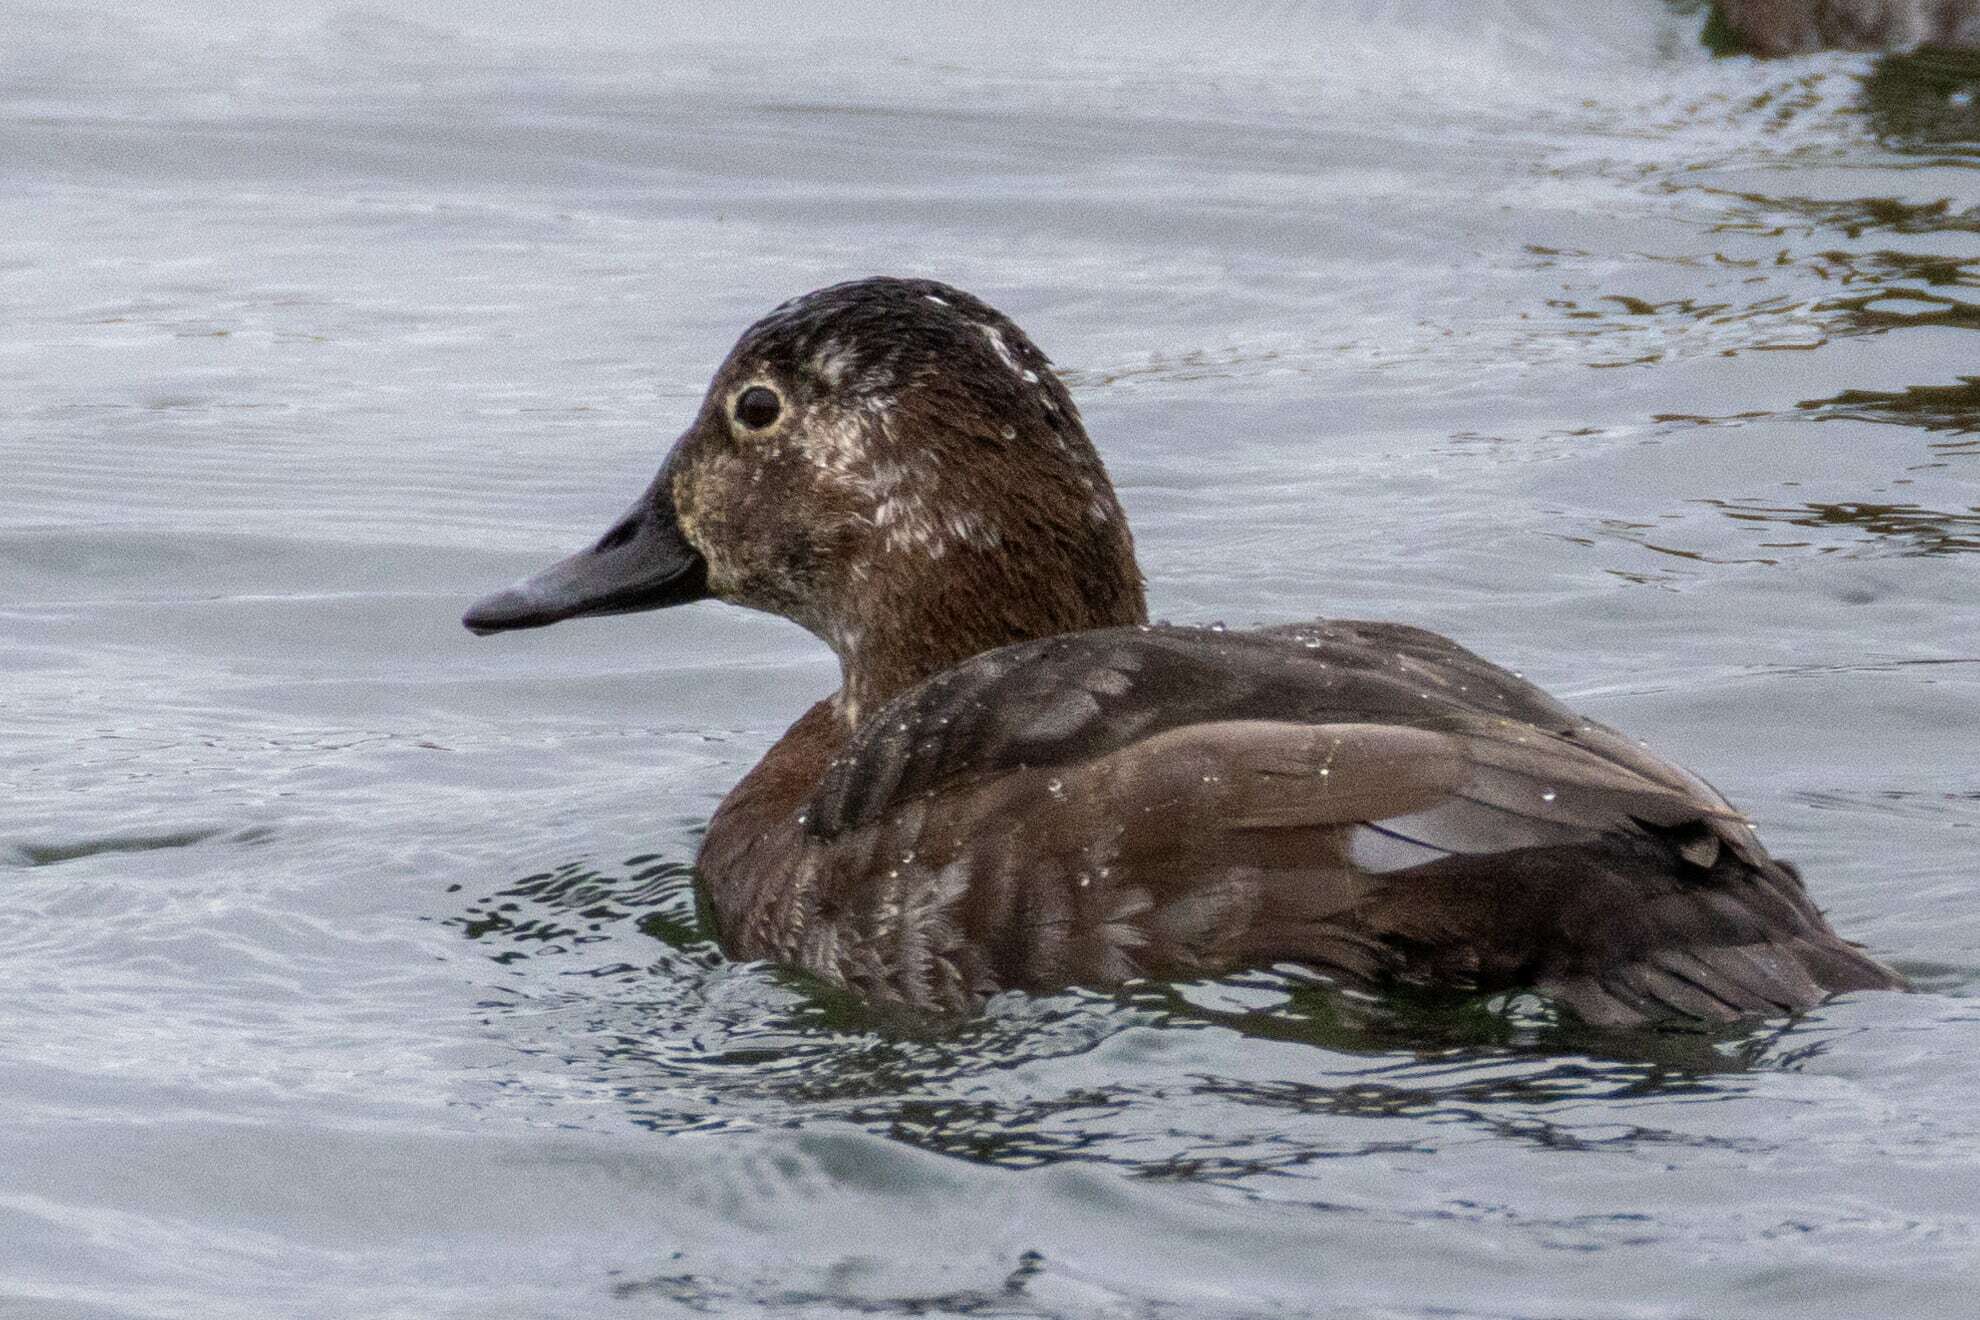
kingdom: Animalia
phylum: Chordata
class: Aves
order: Anseriformes
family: Anatidae
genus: Aythya
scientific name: Aythya ferina
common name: Common pochard
